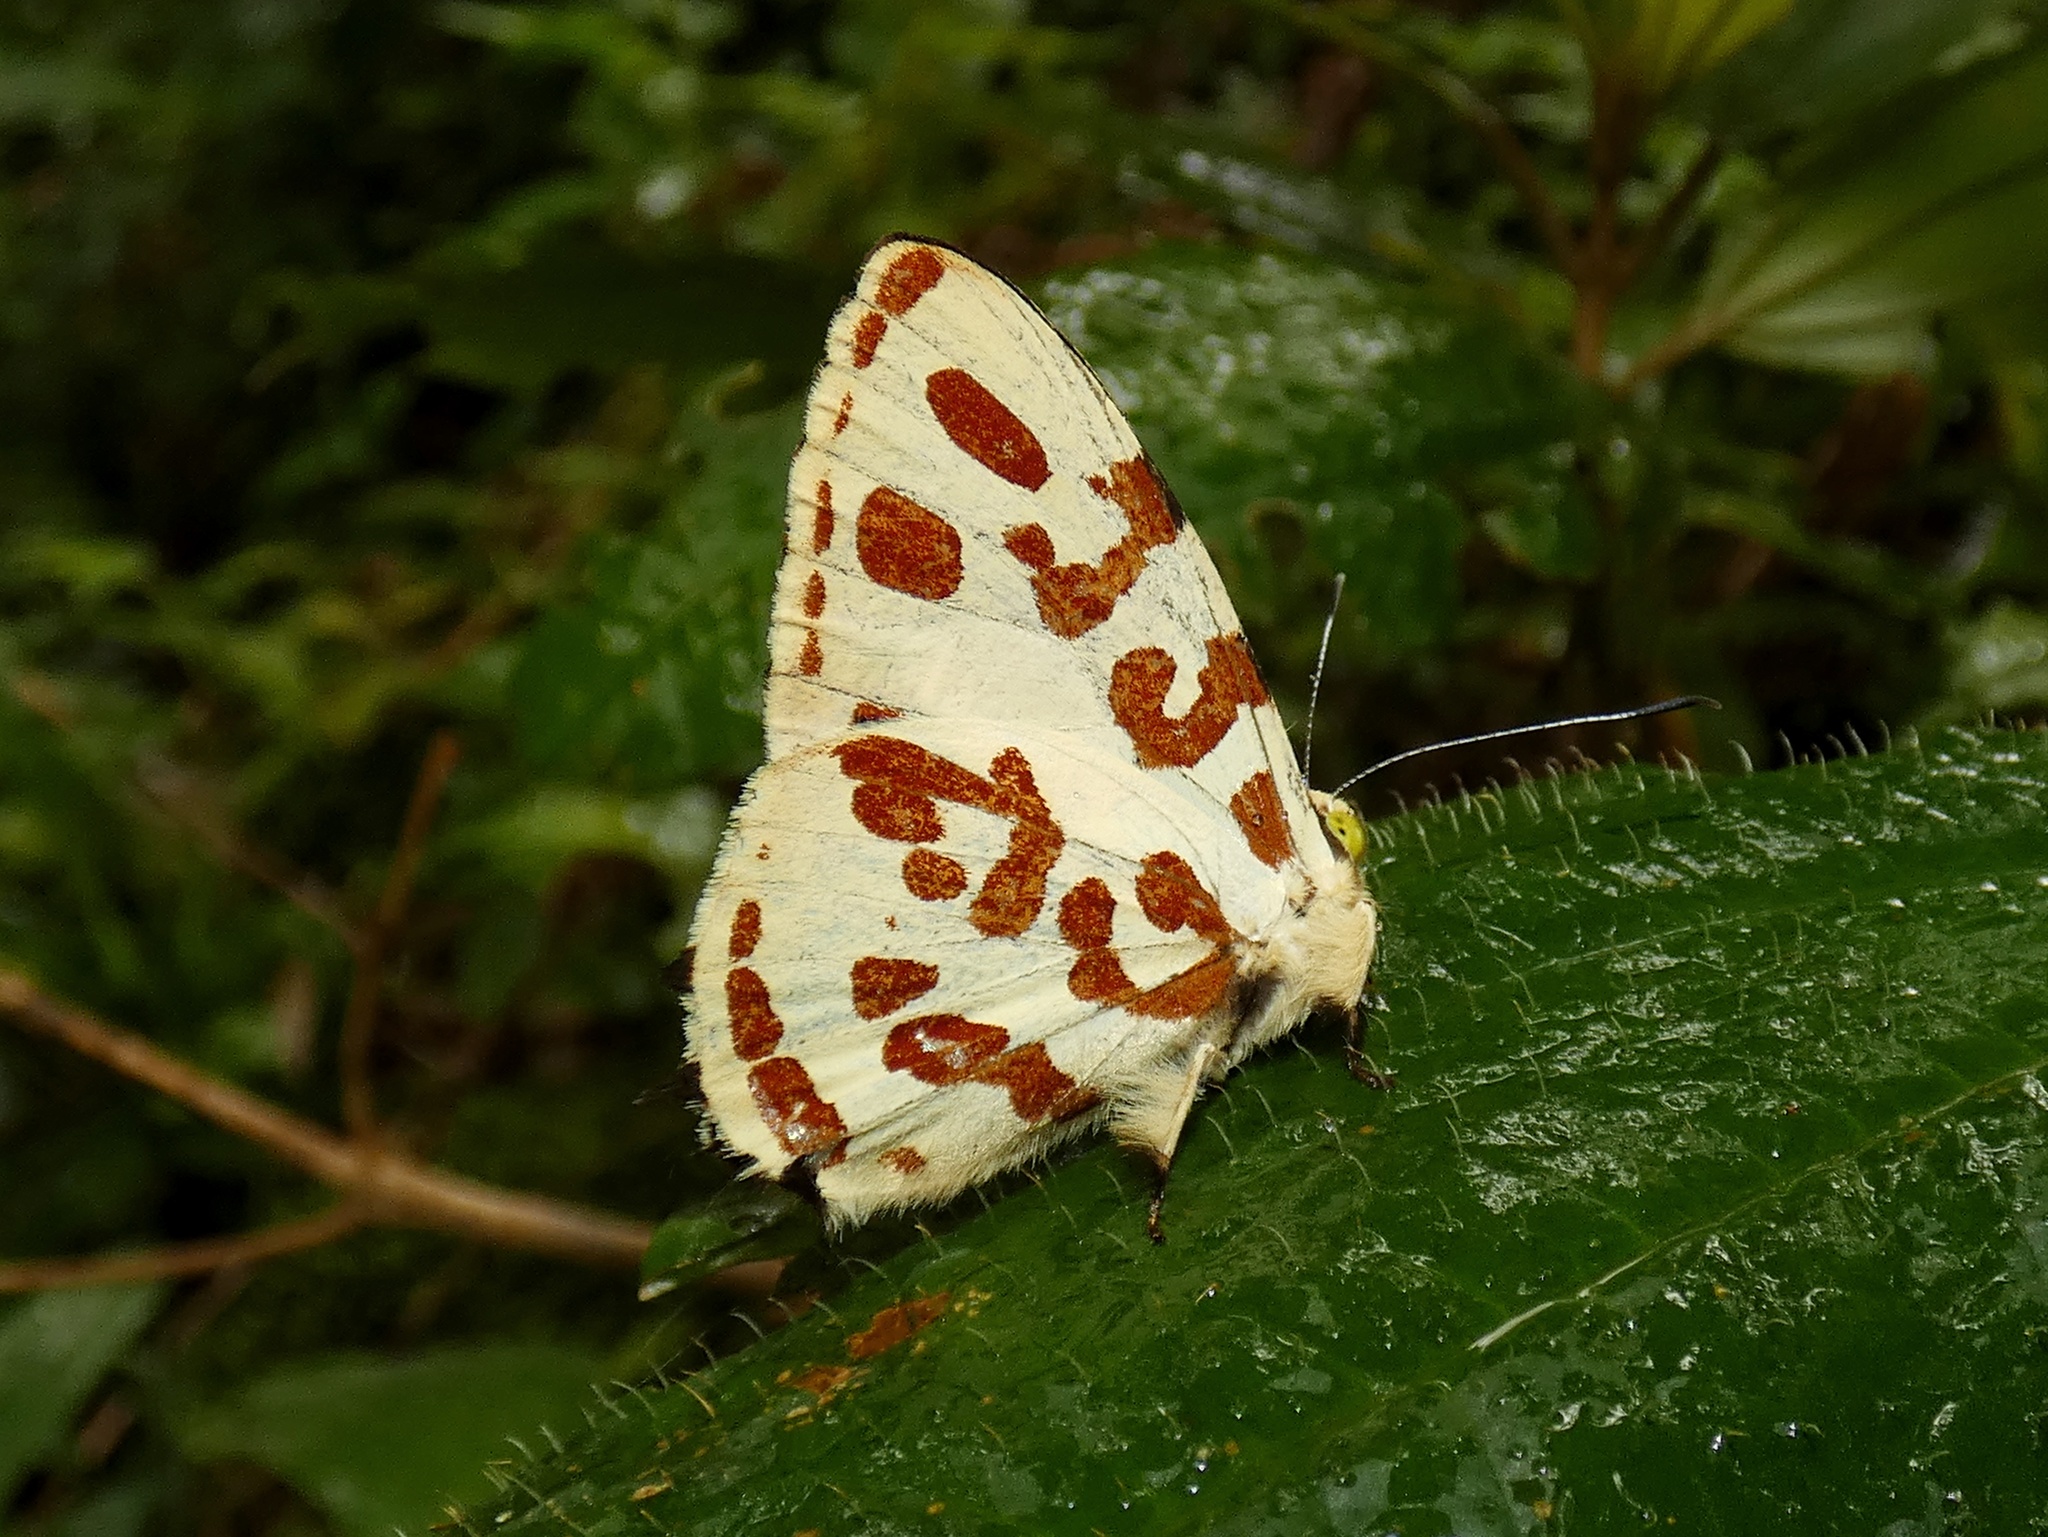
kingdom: Animalia
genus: Anteros
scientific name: Anteros kupris
